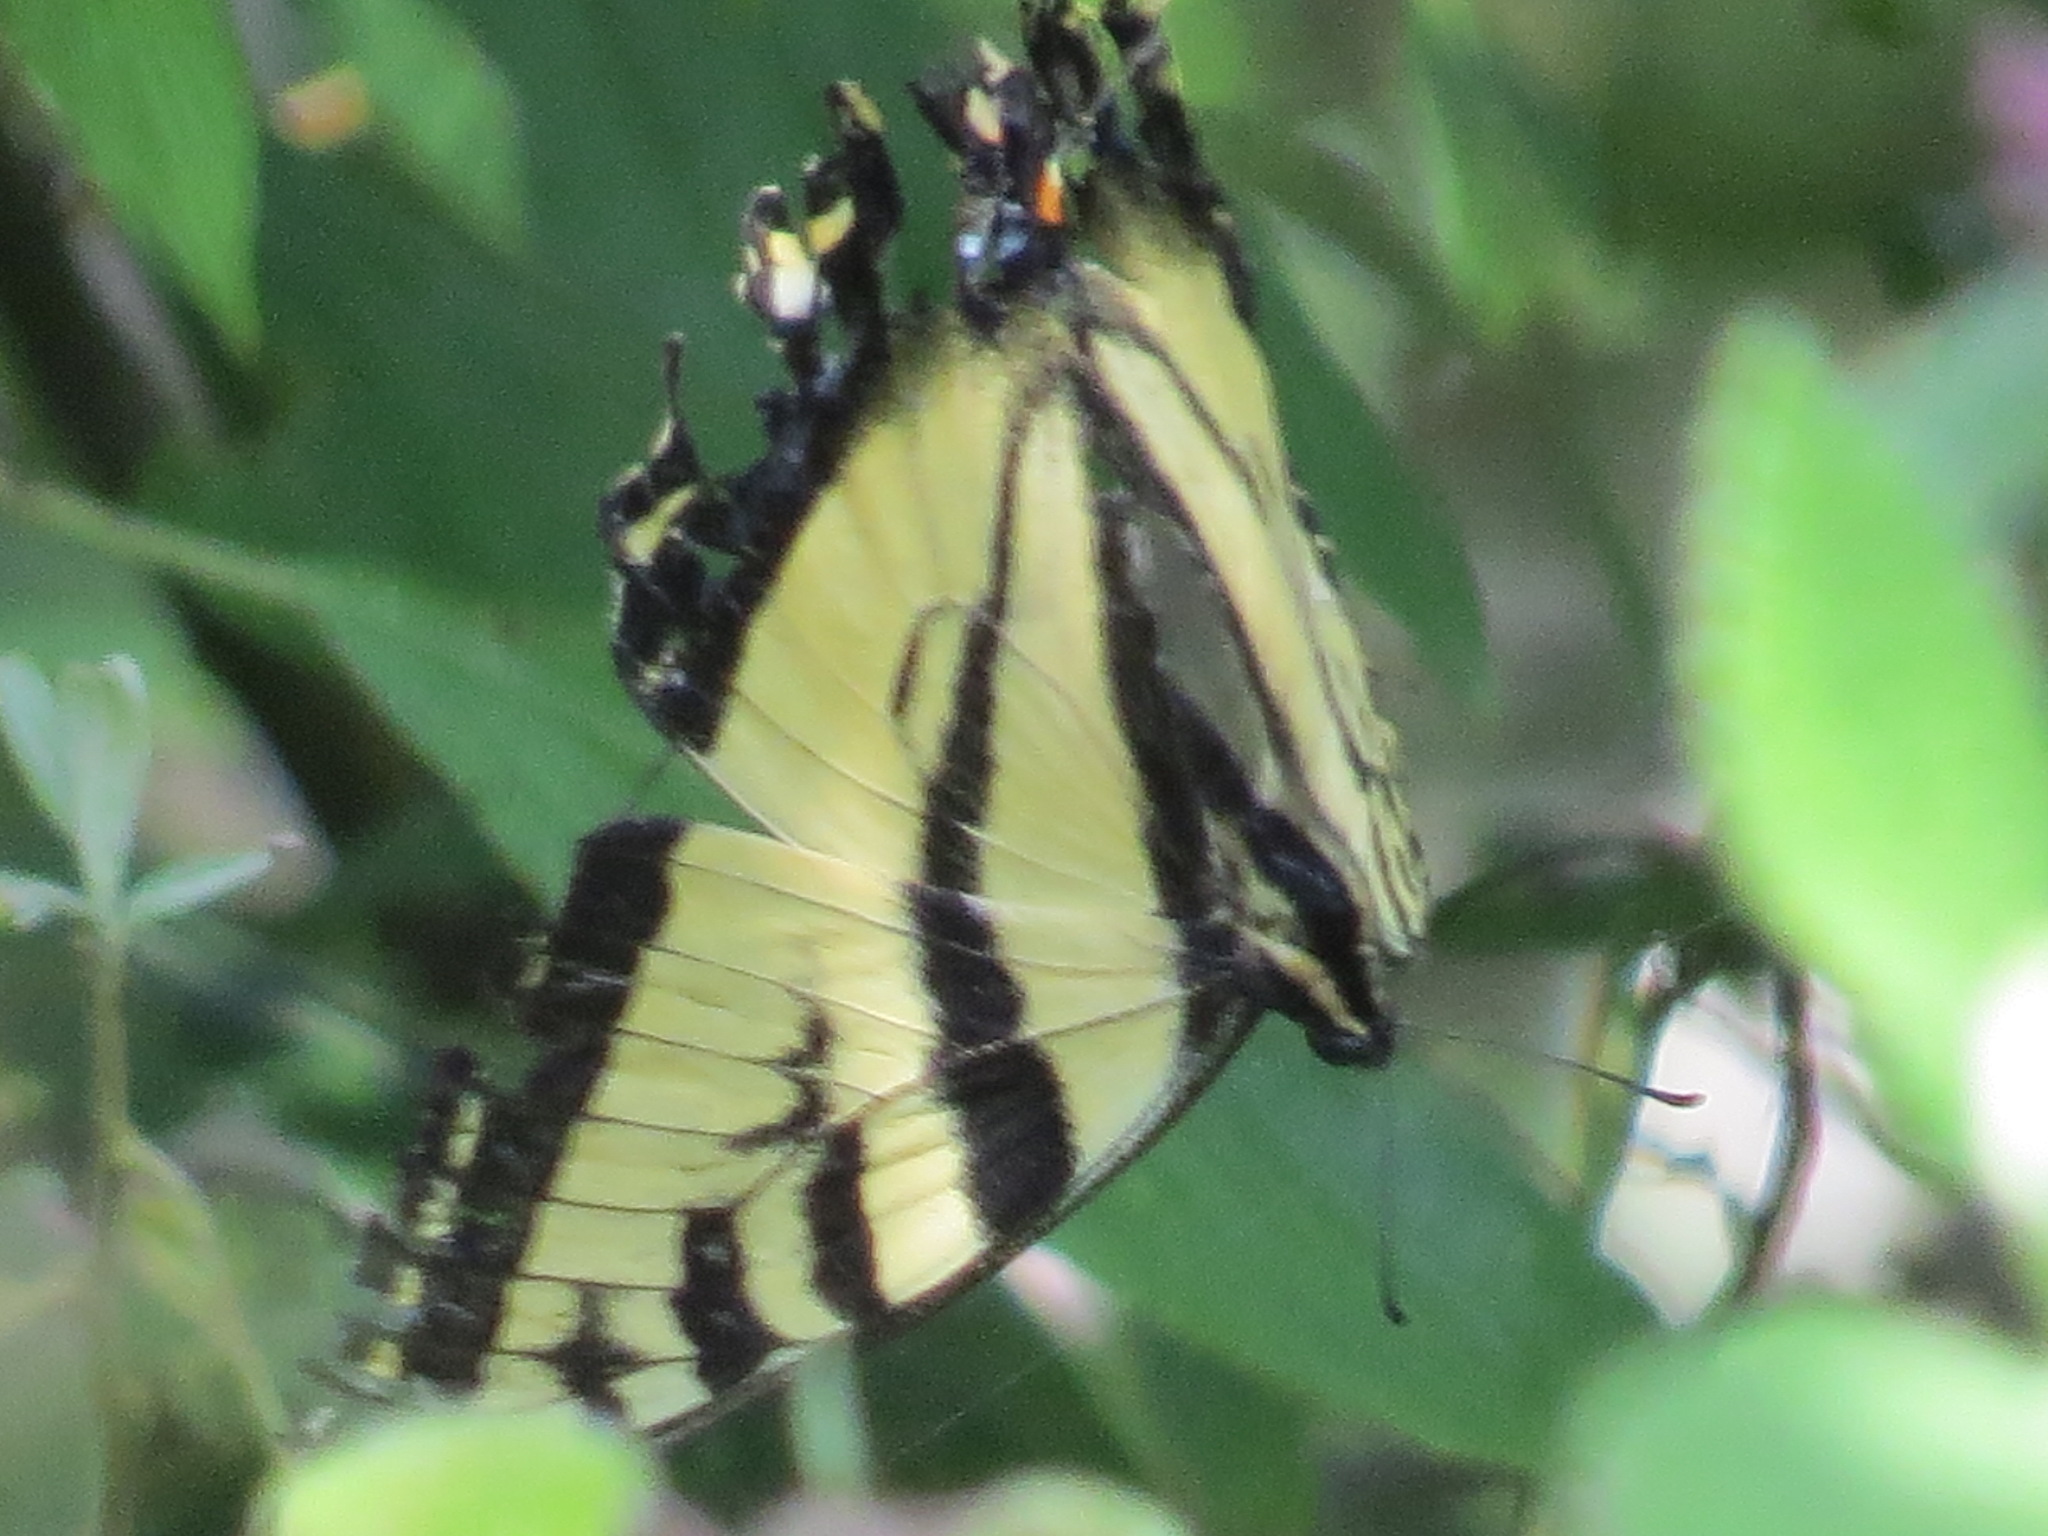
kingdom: Animalia
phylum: Arthropoda
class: Insecta
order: Lepidoptera
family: Papilionidae
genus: Papilio
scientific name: Papilio rutulus
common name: Western tiger swallowtail
